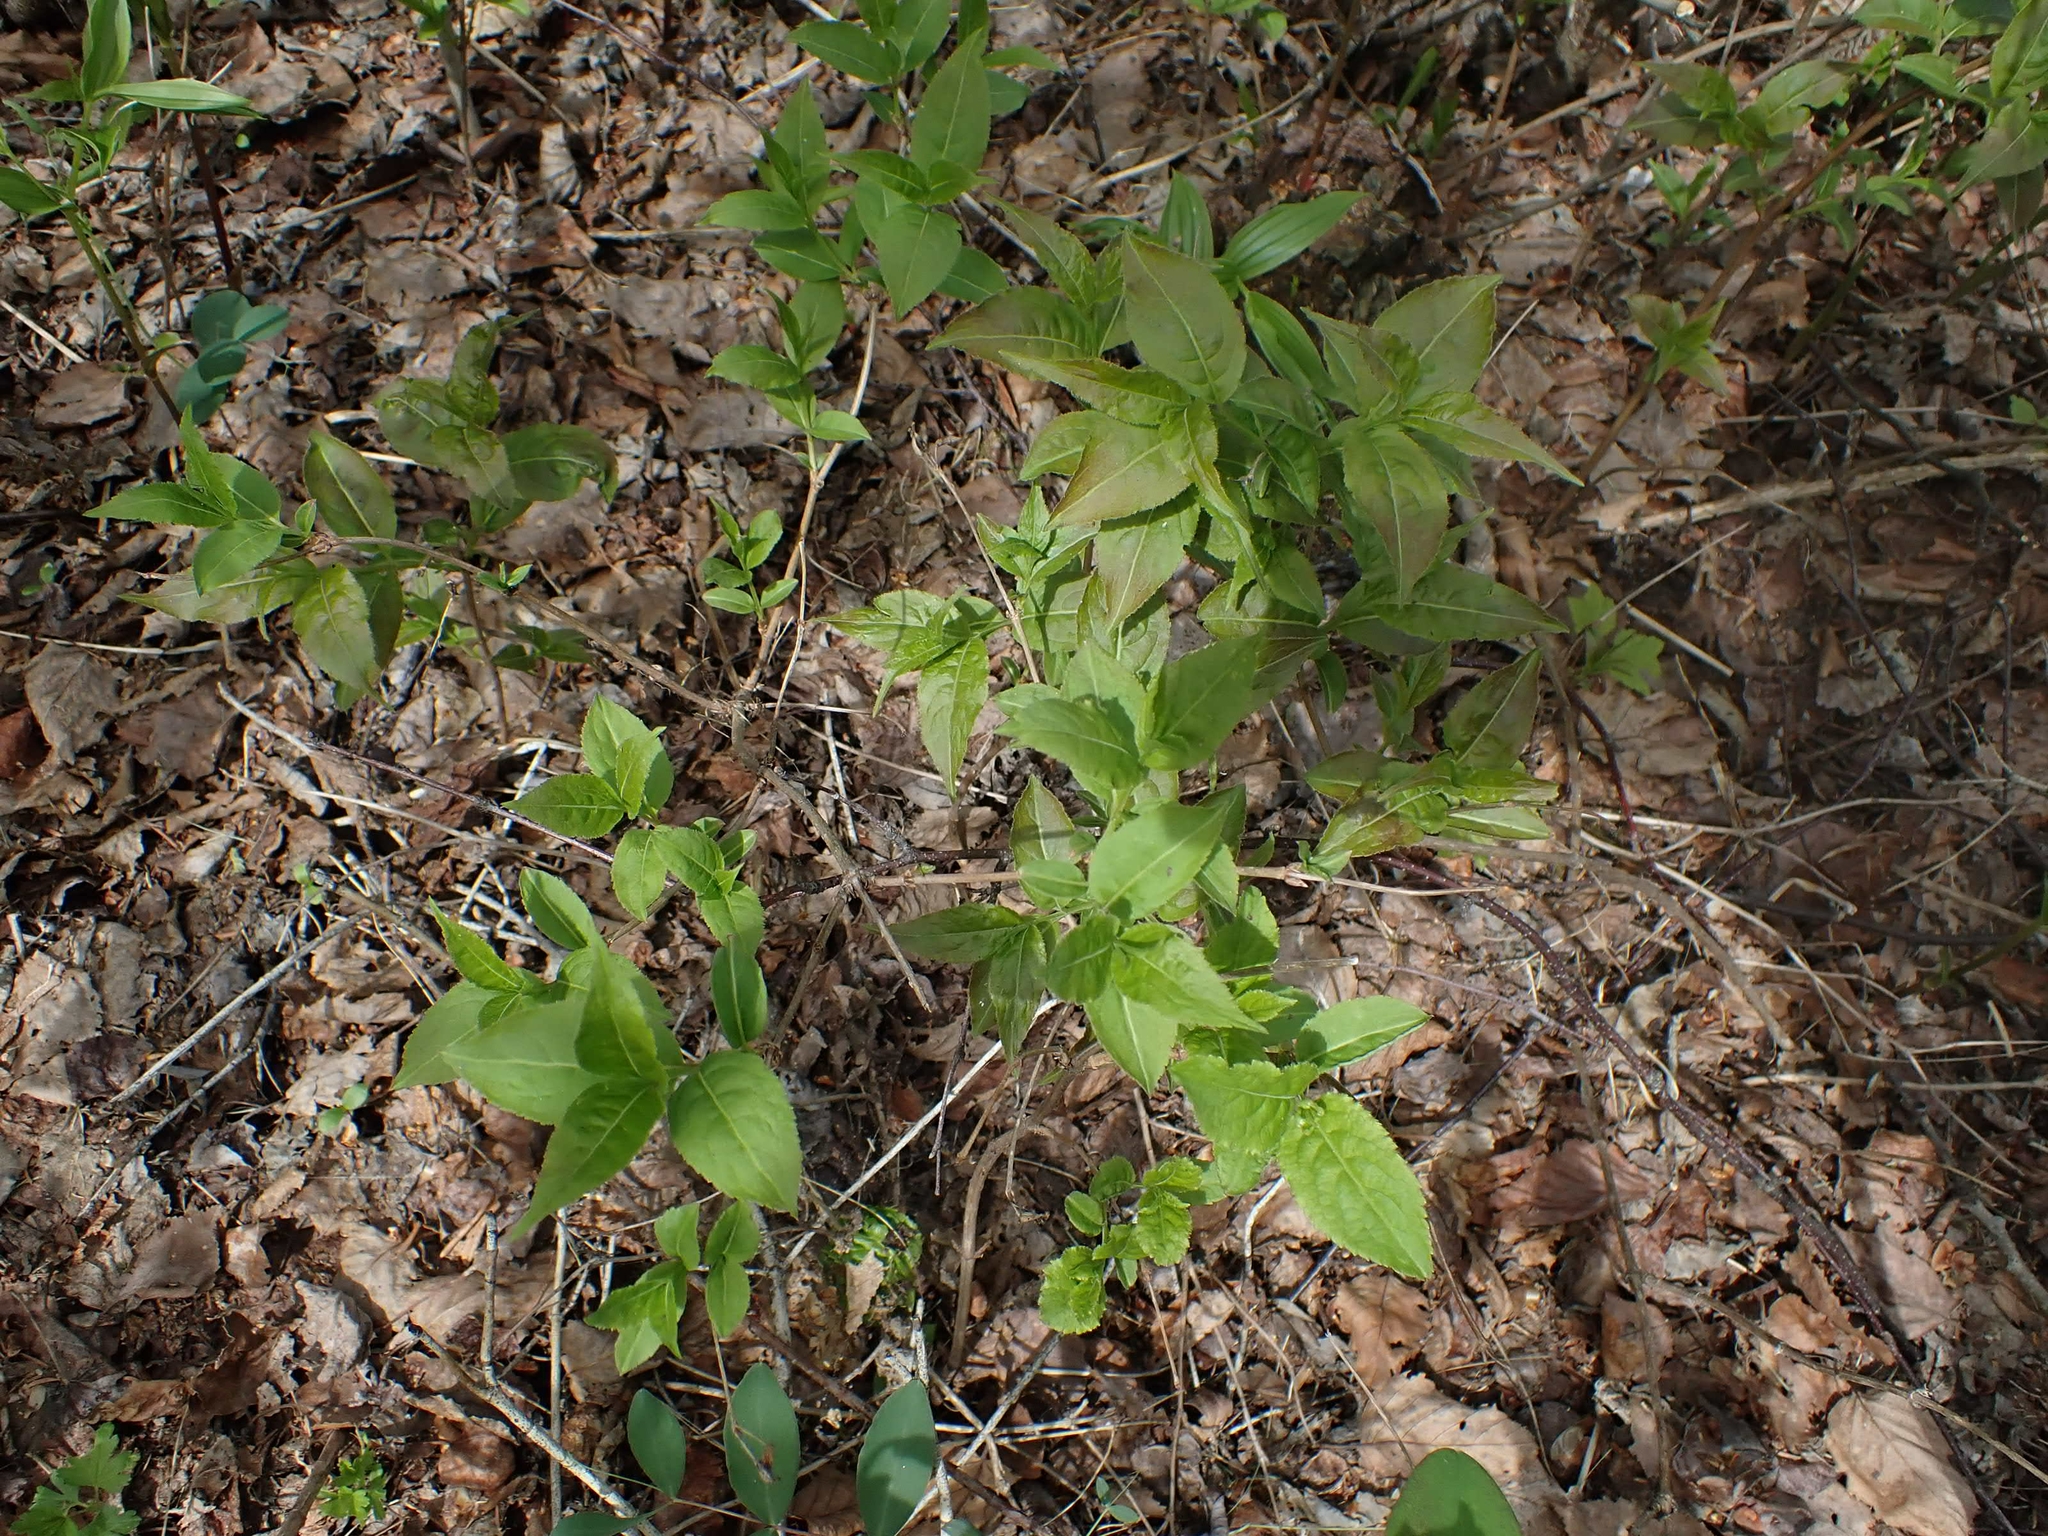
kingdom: Plantae
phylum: Tracheophyta
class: Magnoliopsida
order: Dipsacales
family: Caprifoliaceae
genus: Diervilla
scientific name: Diervilla lonicera
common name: Bush-honeysuckle
